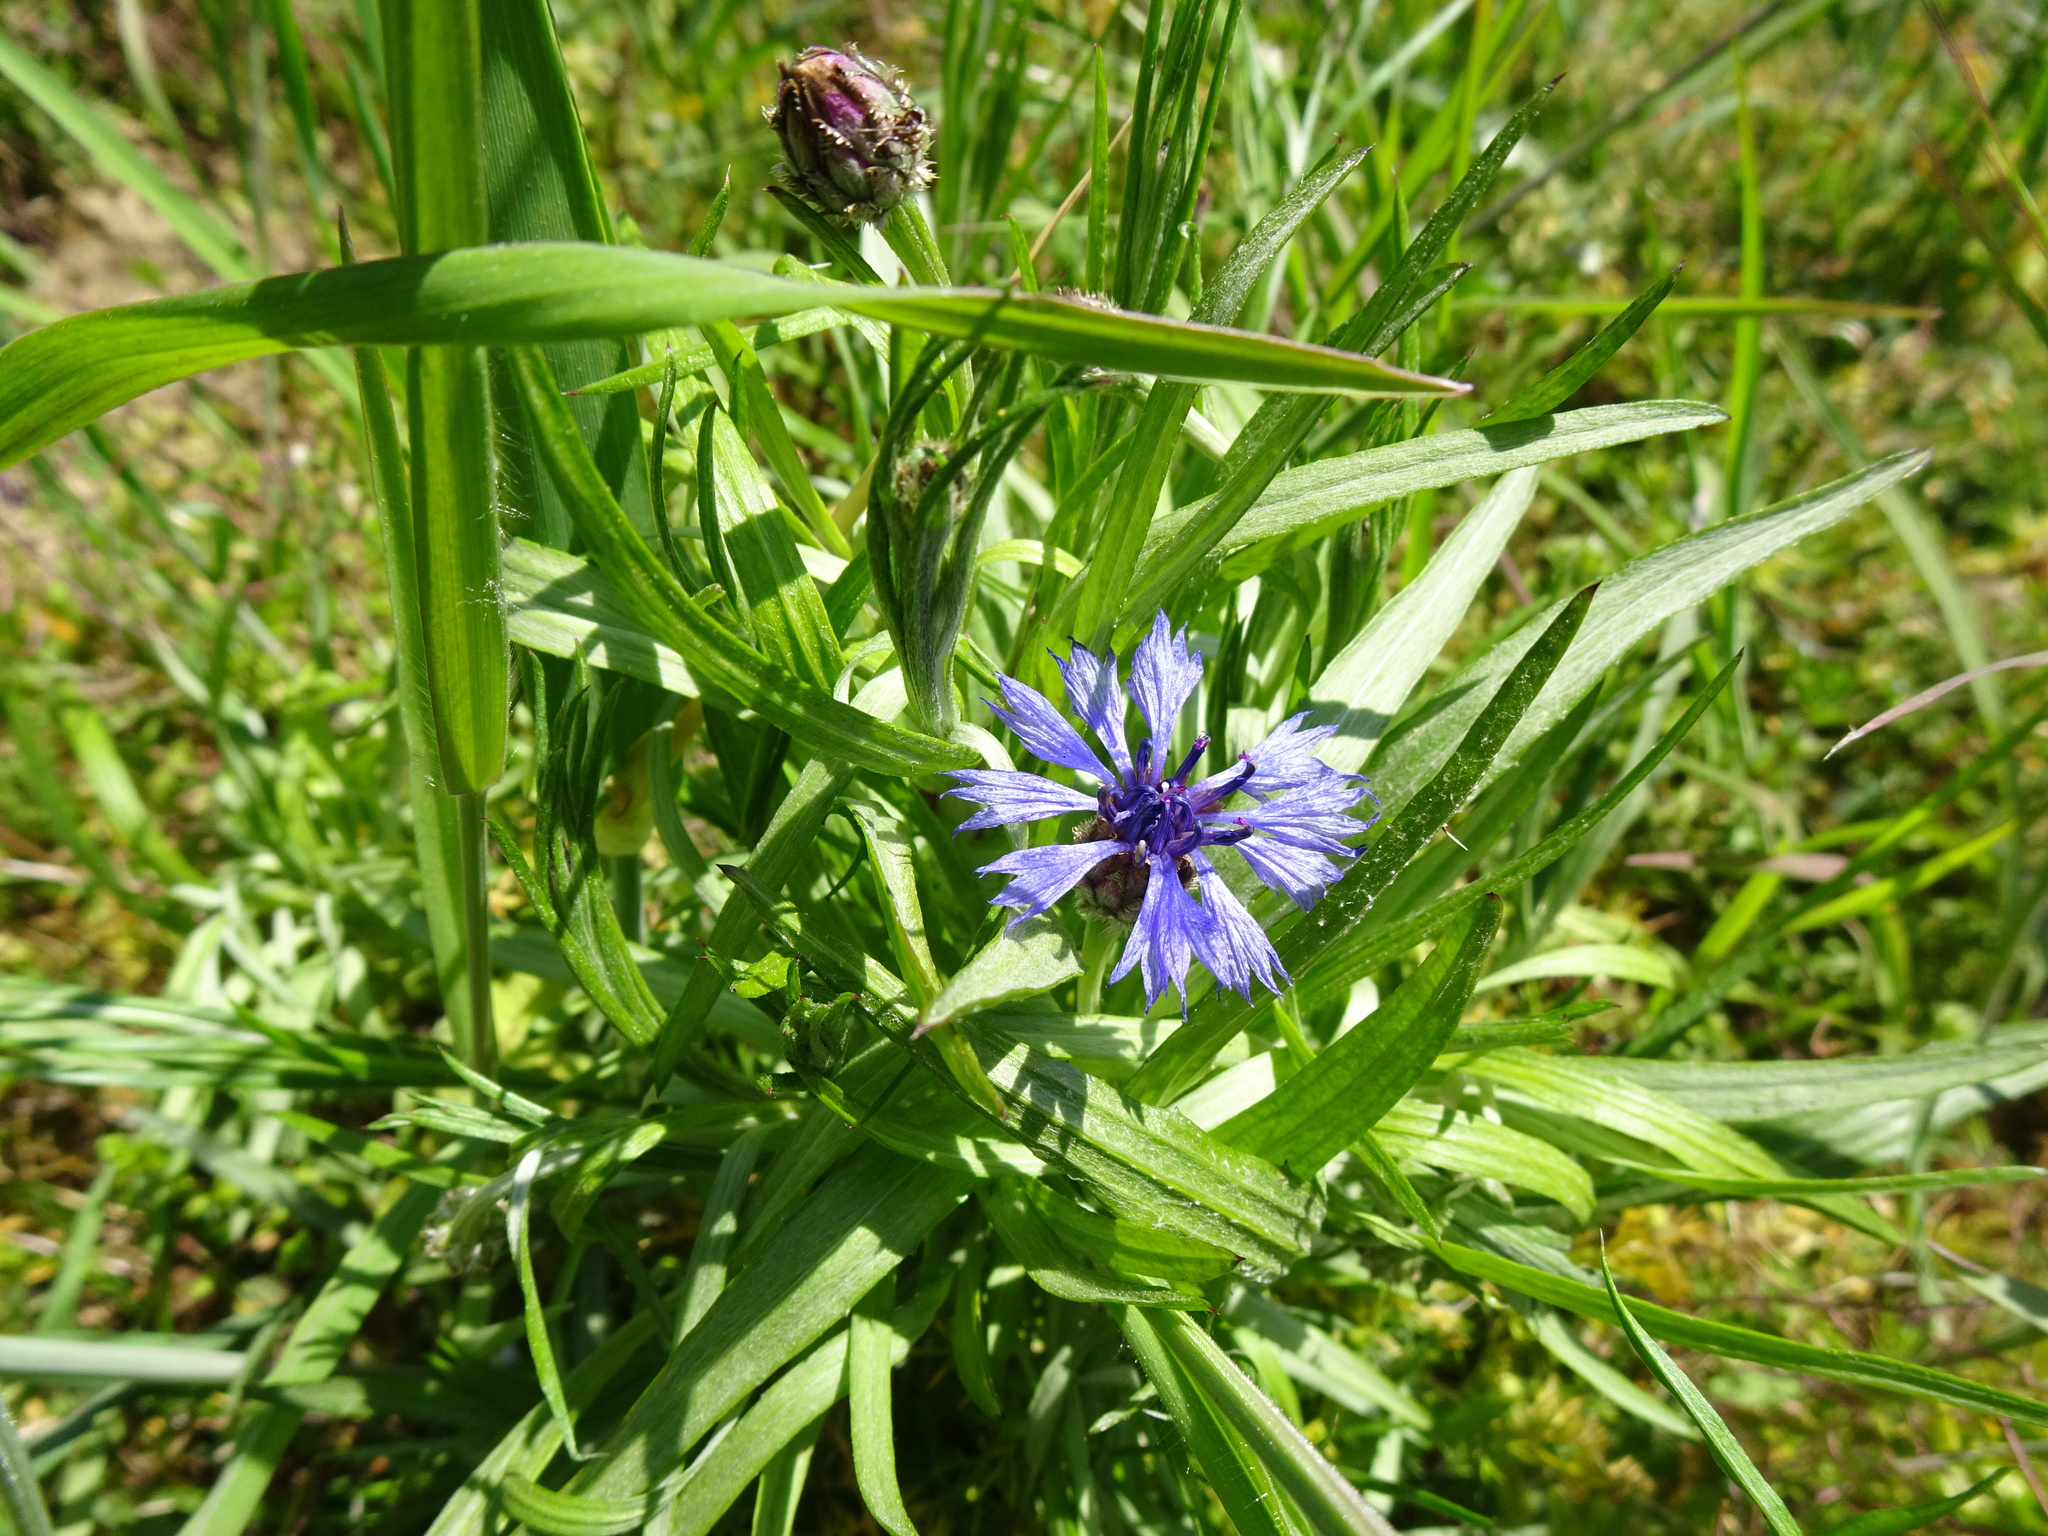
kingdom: Plantae
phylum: Tracheophyta
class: Magnoliopsida
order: Asterales
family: Asteraceae
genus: Centaurea
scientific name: Centaurea cyanus
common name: Cornflower
